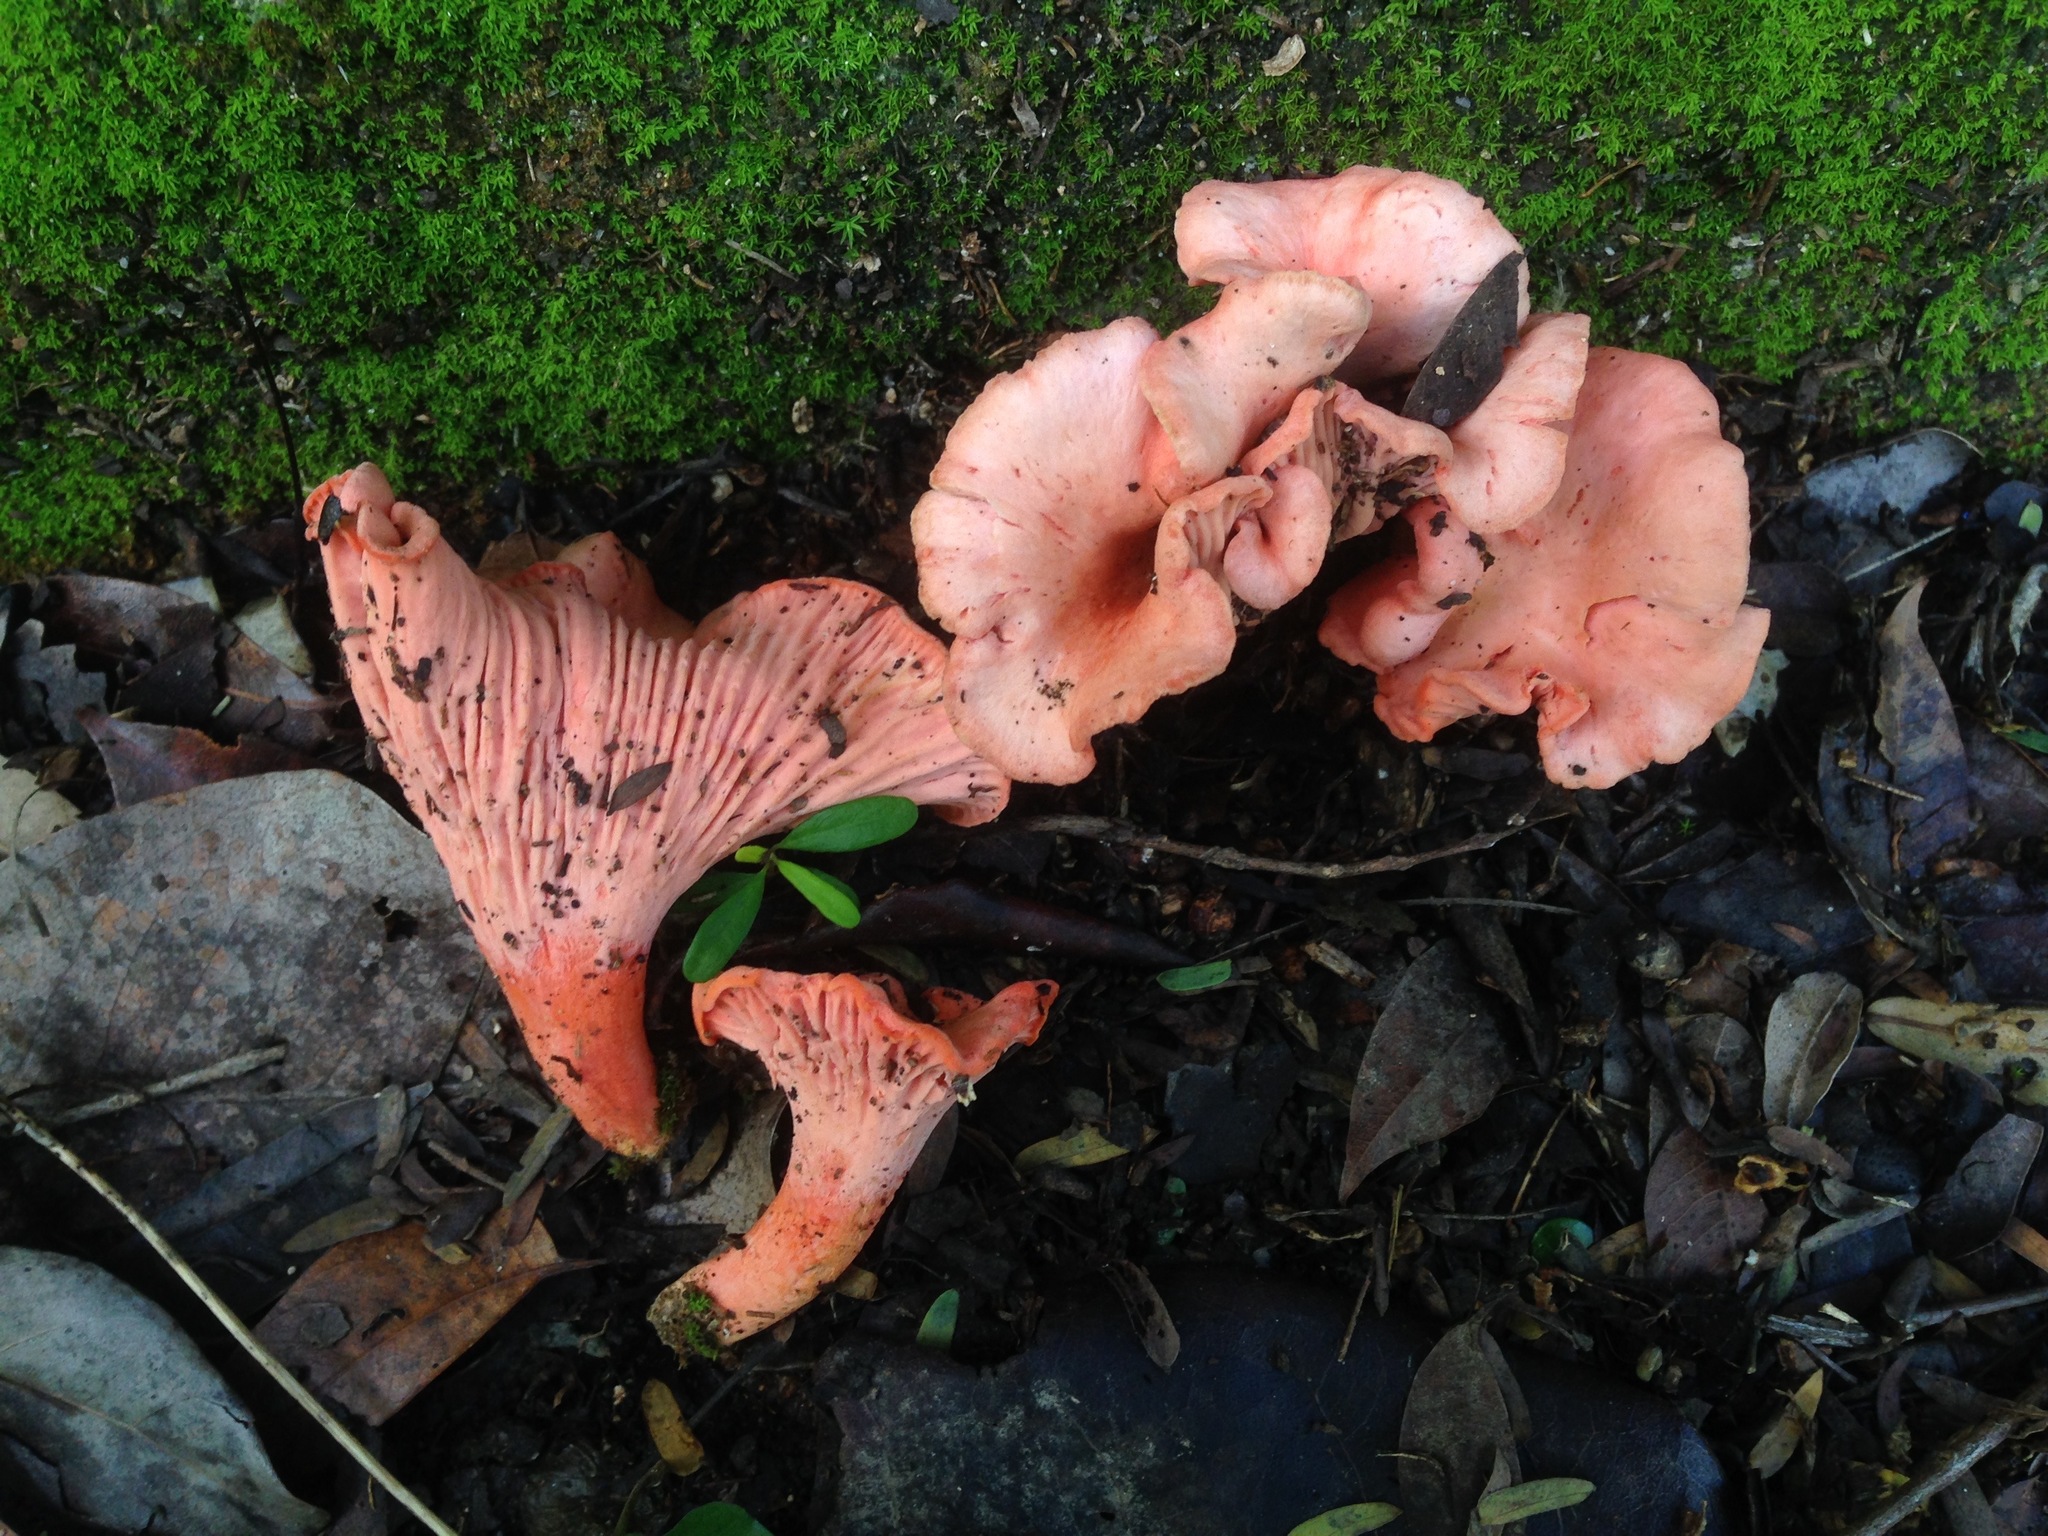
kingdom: Fungi
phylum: Basidiomycota
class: Agaricomycetes
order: Cantharellales
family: Hydnaceae
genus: Cantharellus
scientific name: Cantharellus coccolobae
